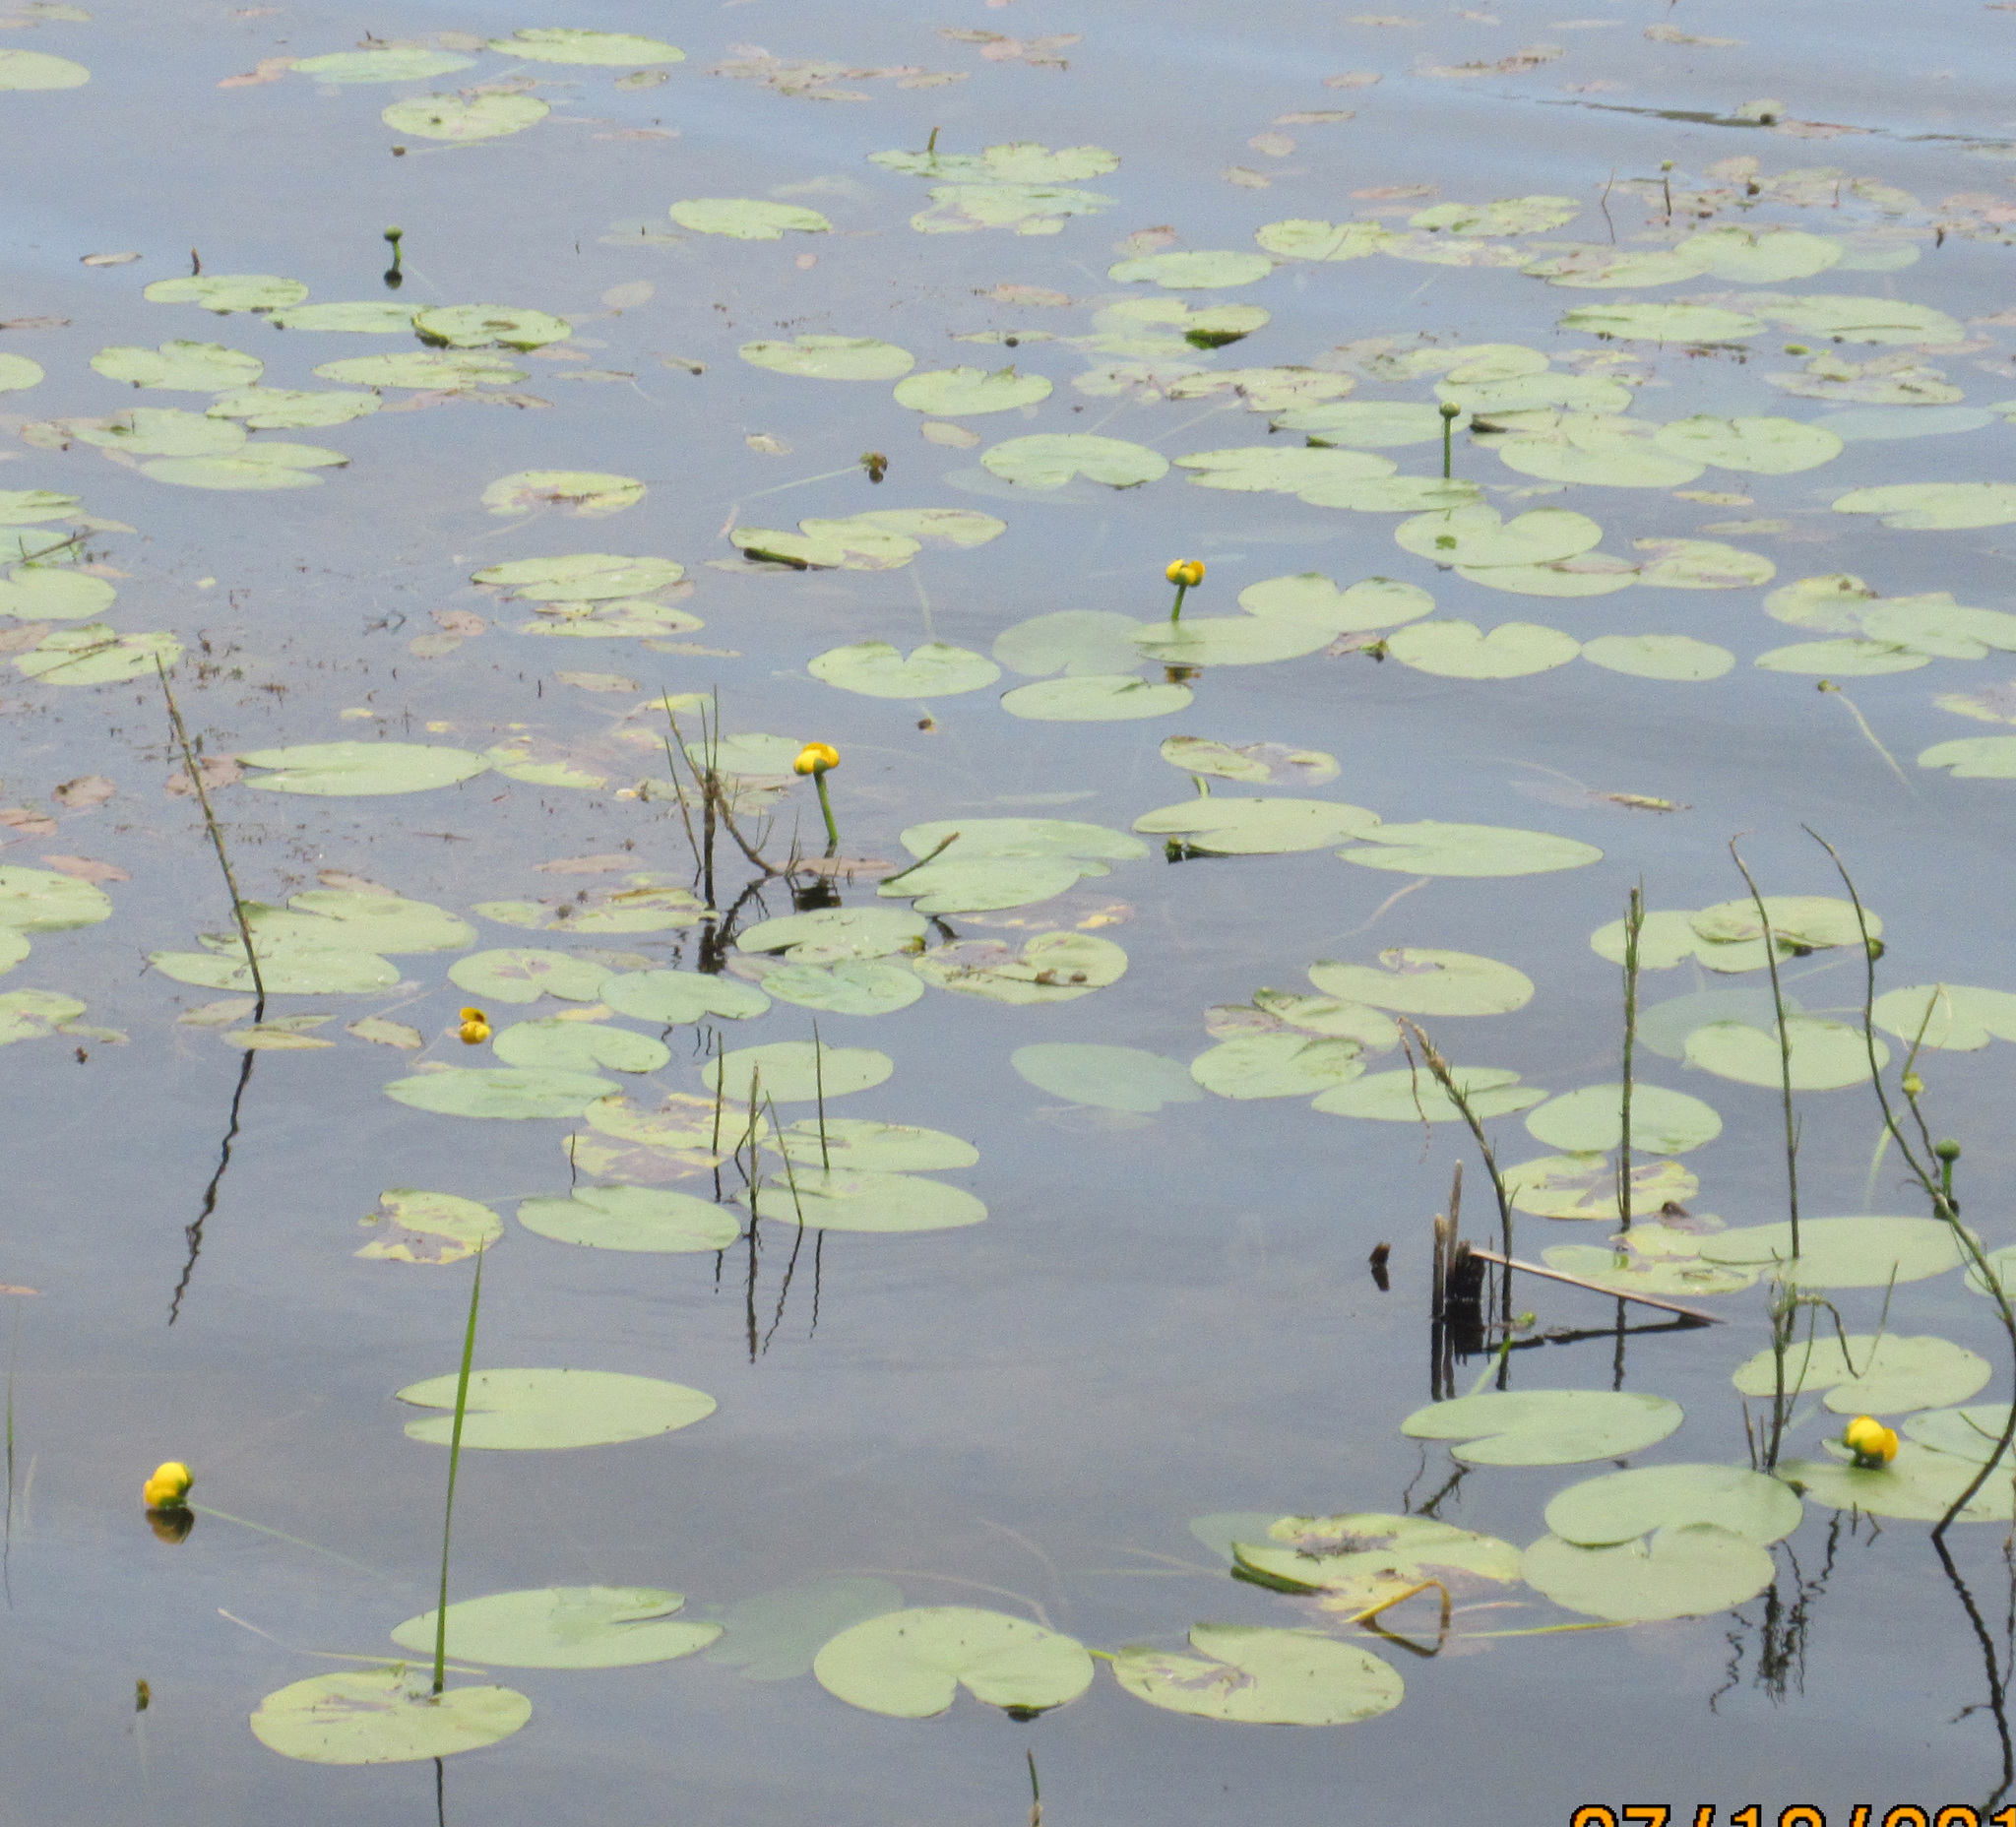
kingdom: Plantae
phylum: Tracheophyta
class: Magnoliopsida
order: Nymphaeales
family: Nymphaeaceae
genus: Nuphar
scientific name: Nuphar variegata
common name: Beaver-root
